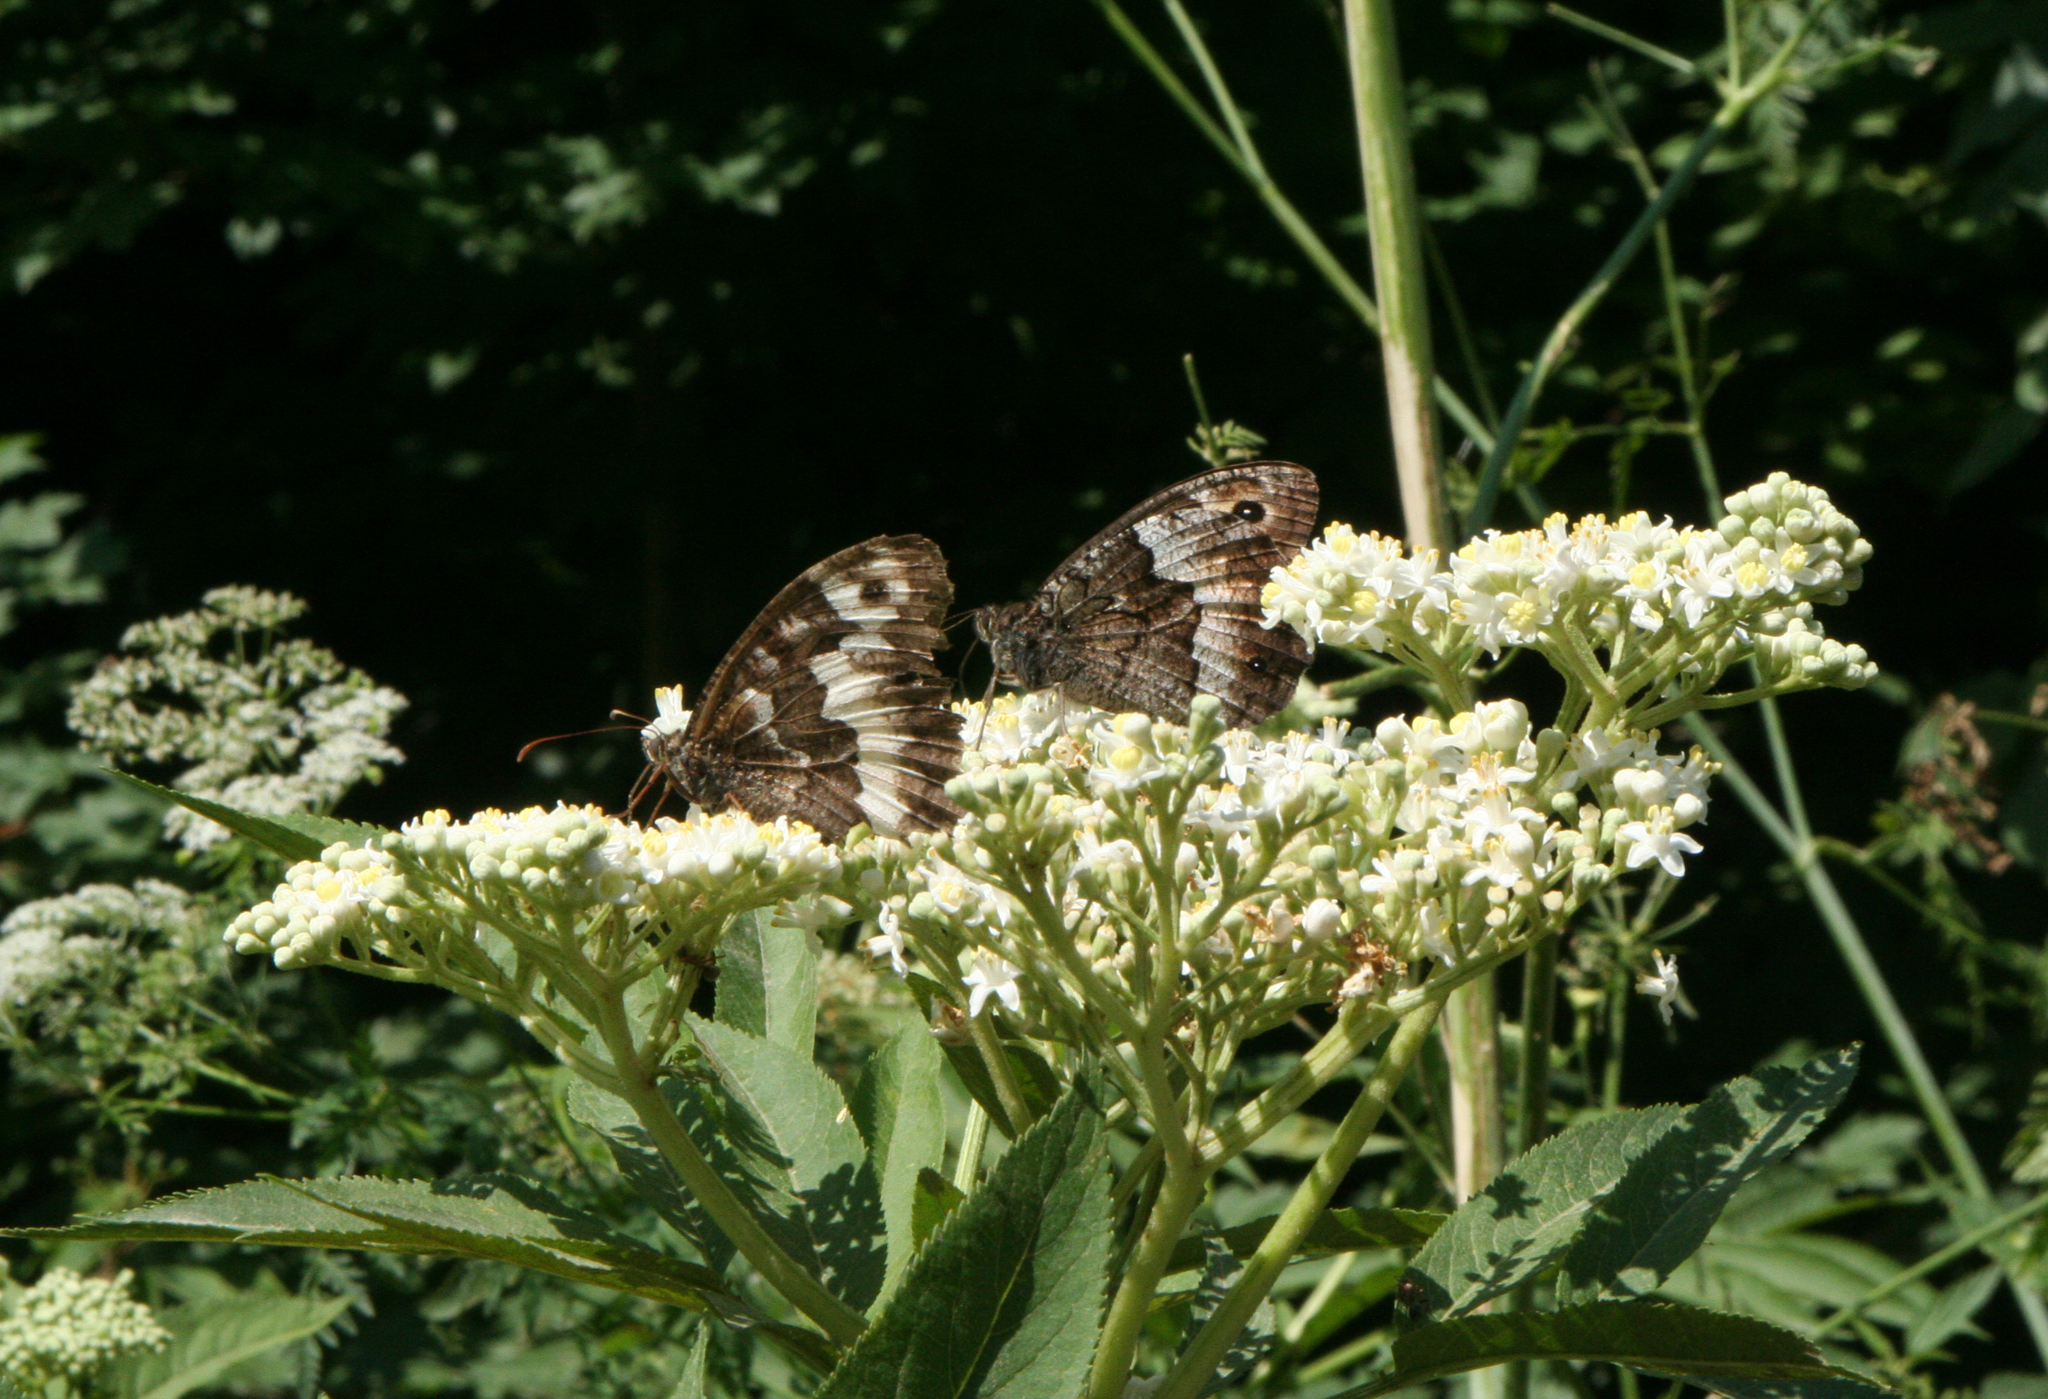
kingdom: Animalia
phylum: Arthropoda
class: Insecta
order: Lepidoptera
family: Lycaenidae
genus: Loweia
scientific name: Loweia tityrus
